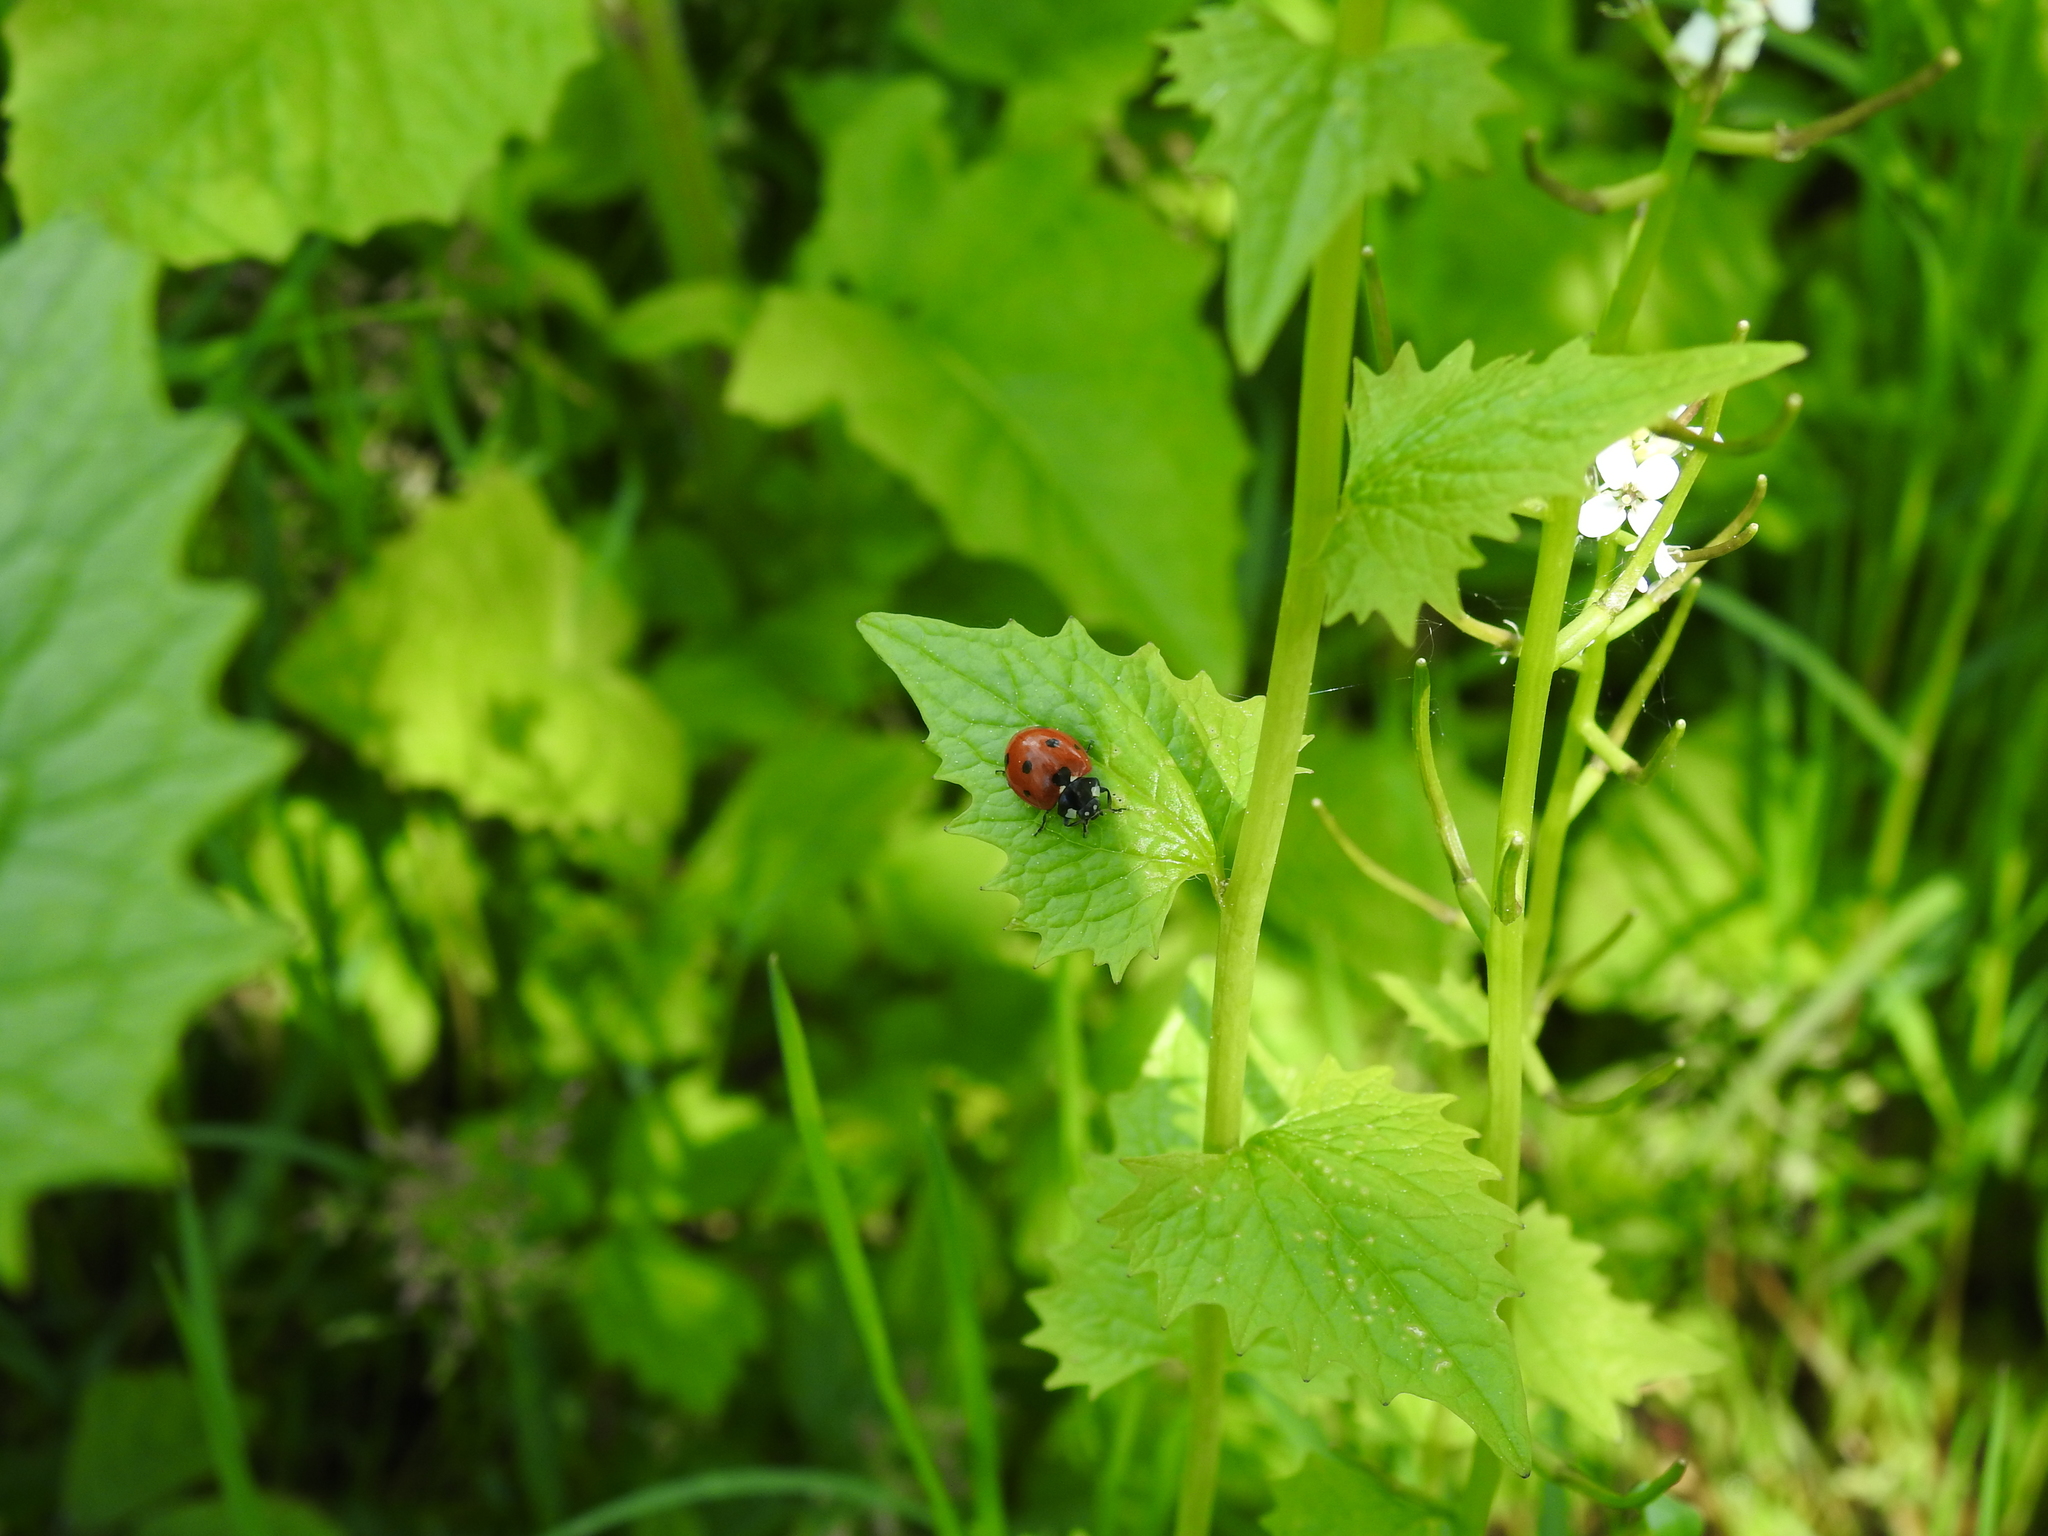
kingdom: Animalia
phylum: Arthropoda
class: Insecta
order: Coleoptera
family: Coccinellidae
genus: Coccinella
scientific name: Coccinella septempunctata
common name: Sevenspotted lady beetle
